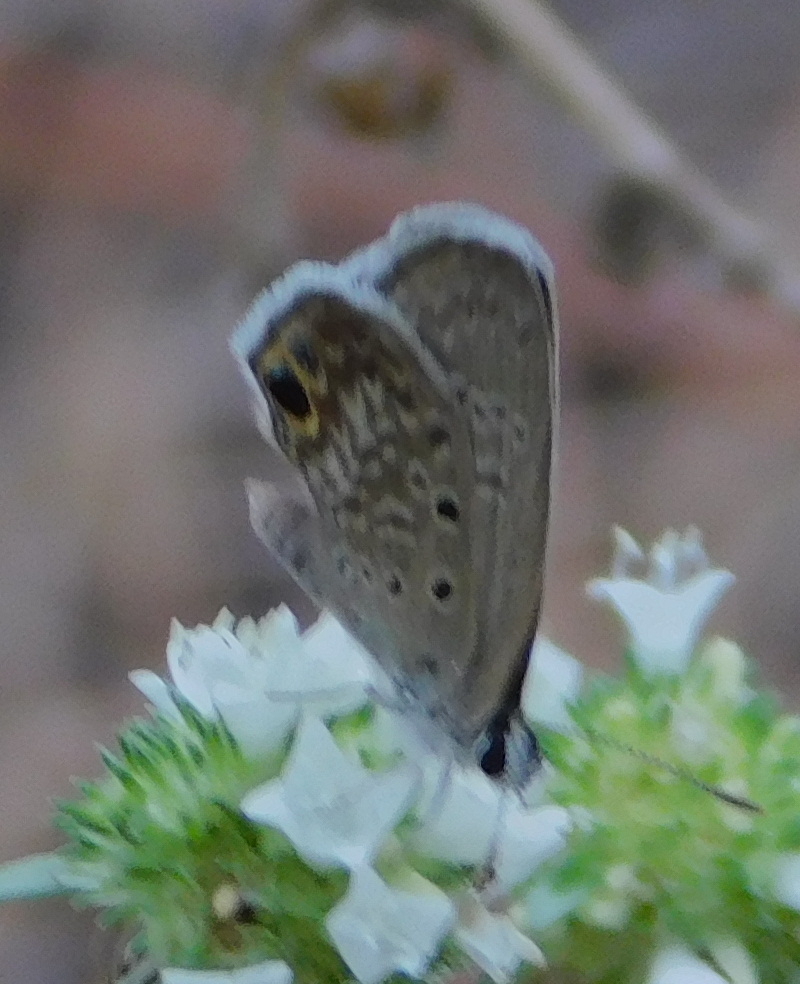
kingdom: Animalia
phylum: Arthropoda
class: Insecta
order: Lepidoptera
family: Lycaenidae
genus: Hemiargus
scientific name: Hemiargus ceraunus
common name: Ceraunus blue
